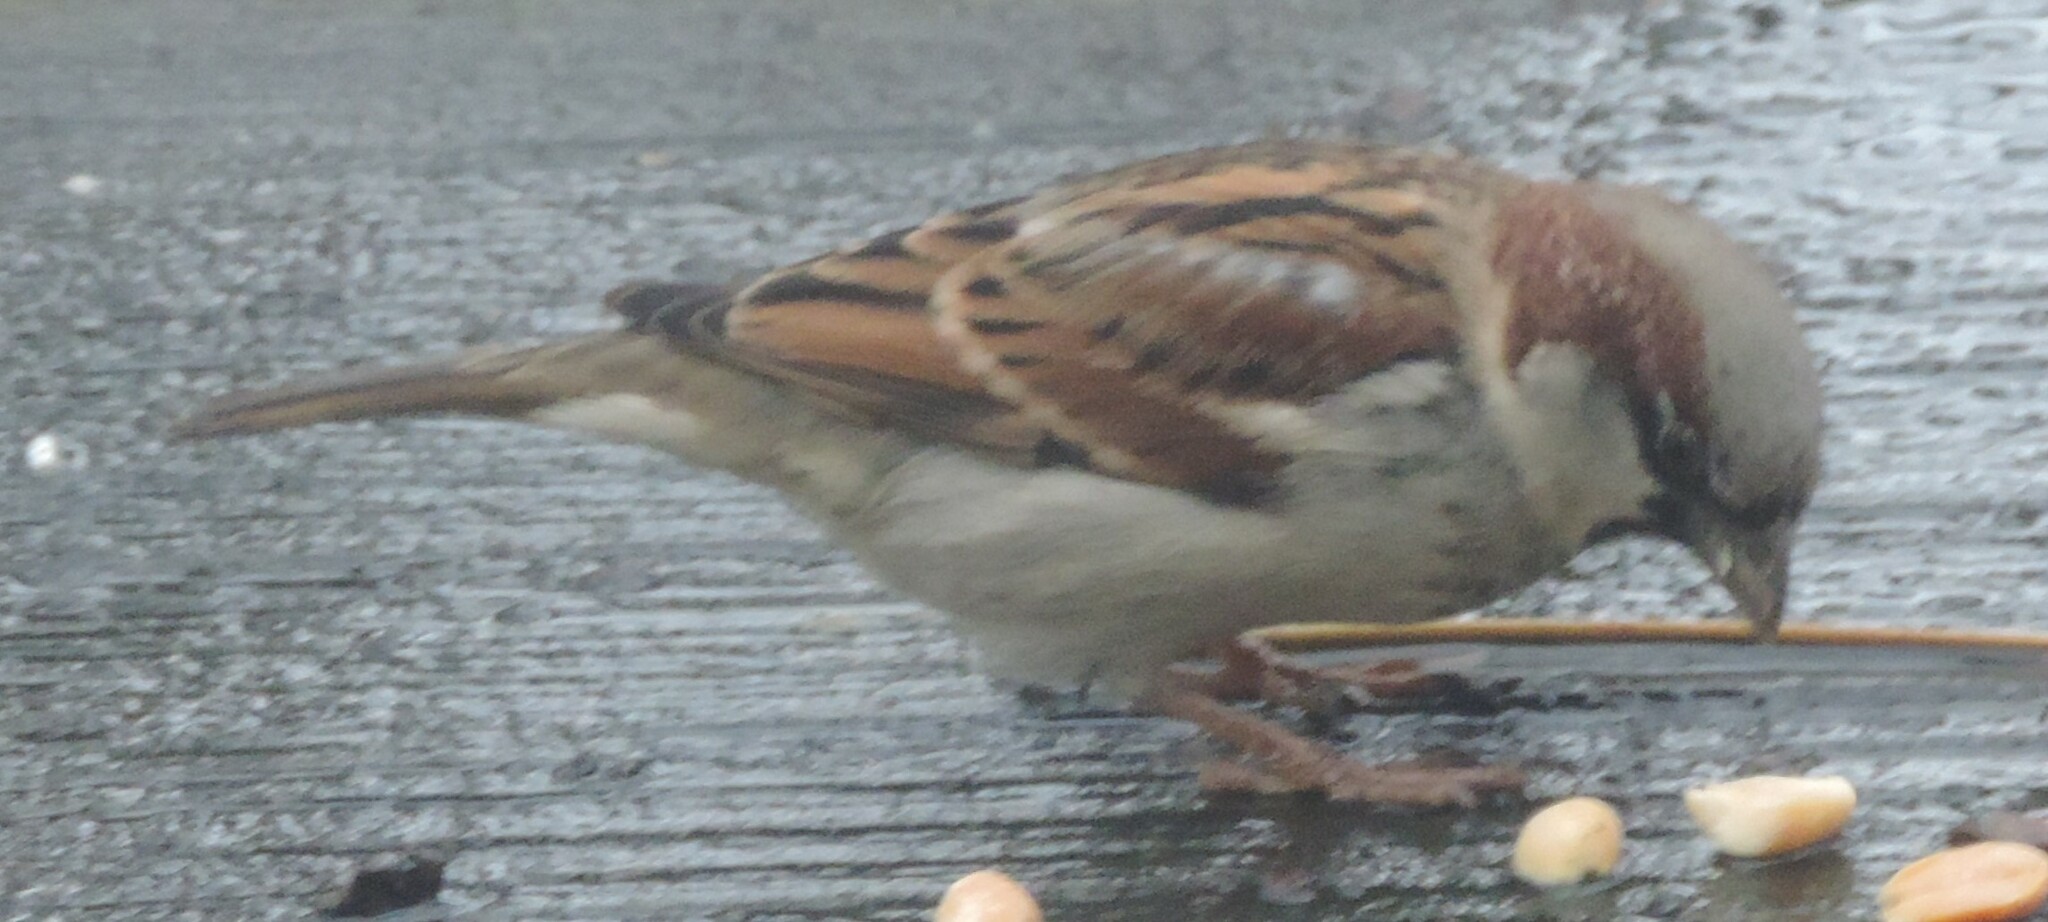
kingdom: Animalia
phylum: Chordata
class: Aves
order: Passeriformes
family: Passeridae
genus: Passer
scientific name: Passer domesticus
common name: House sparrow
